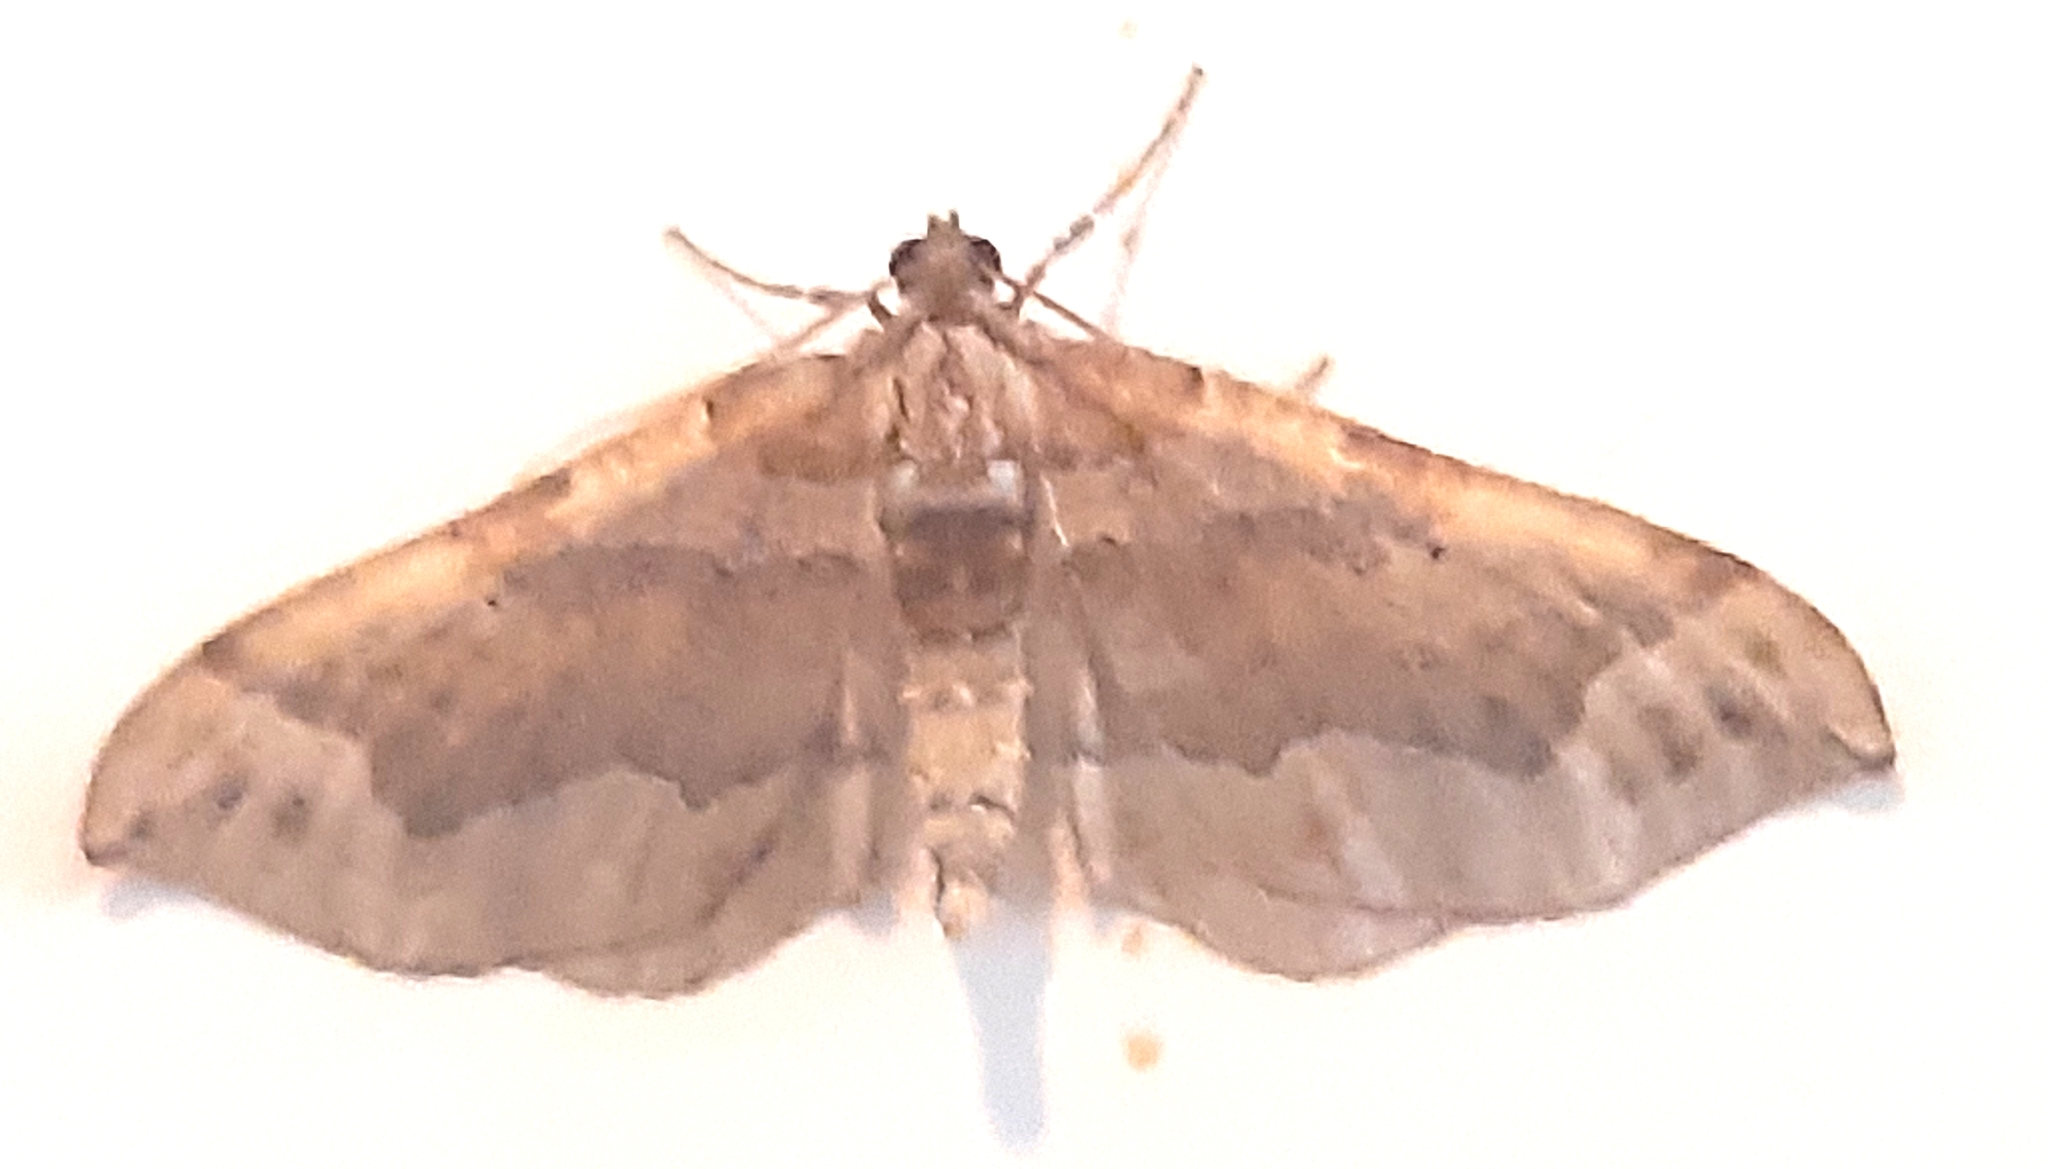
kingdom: Animalia
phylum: Arthropoda
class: Insecta
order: Lepidoptera
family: Geometridae
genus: Pelurga
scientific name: Pelurga comitata
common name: Dark spinach
